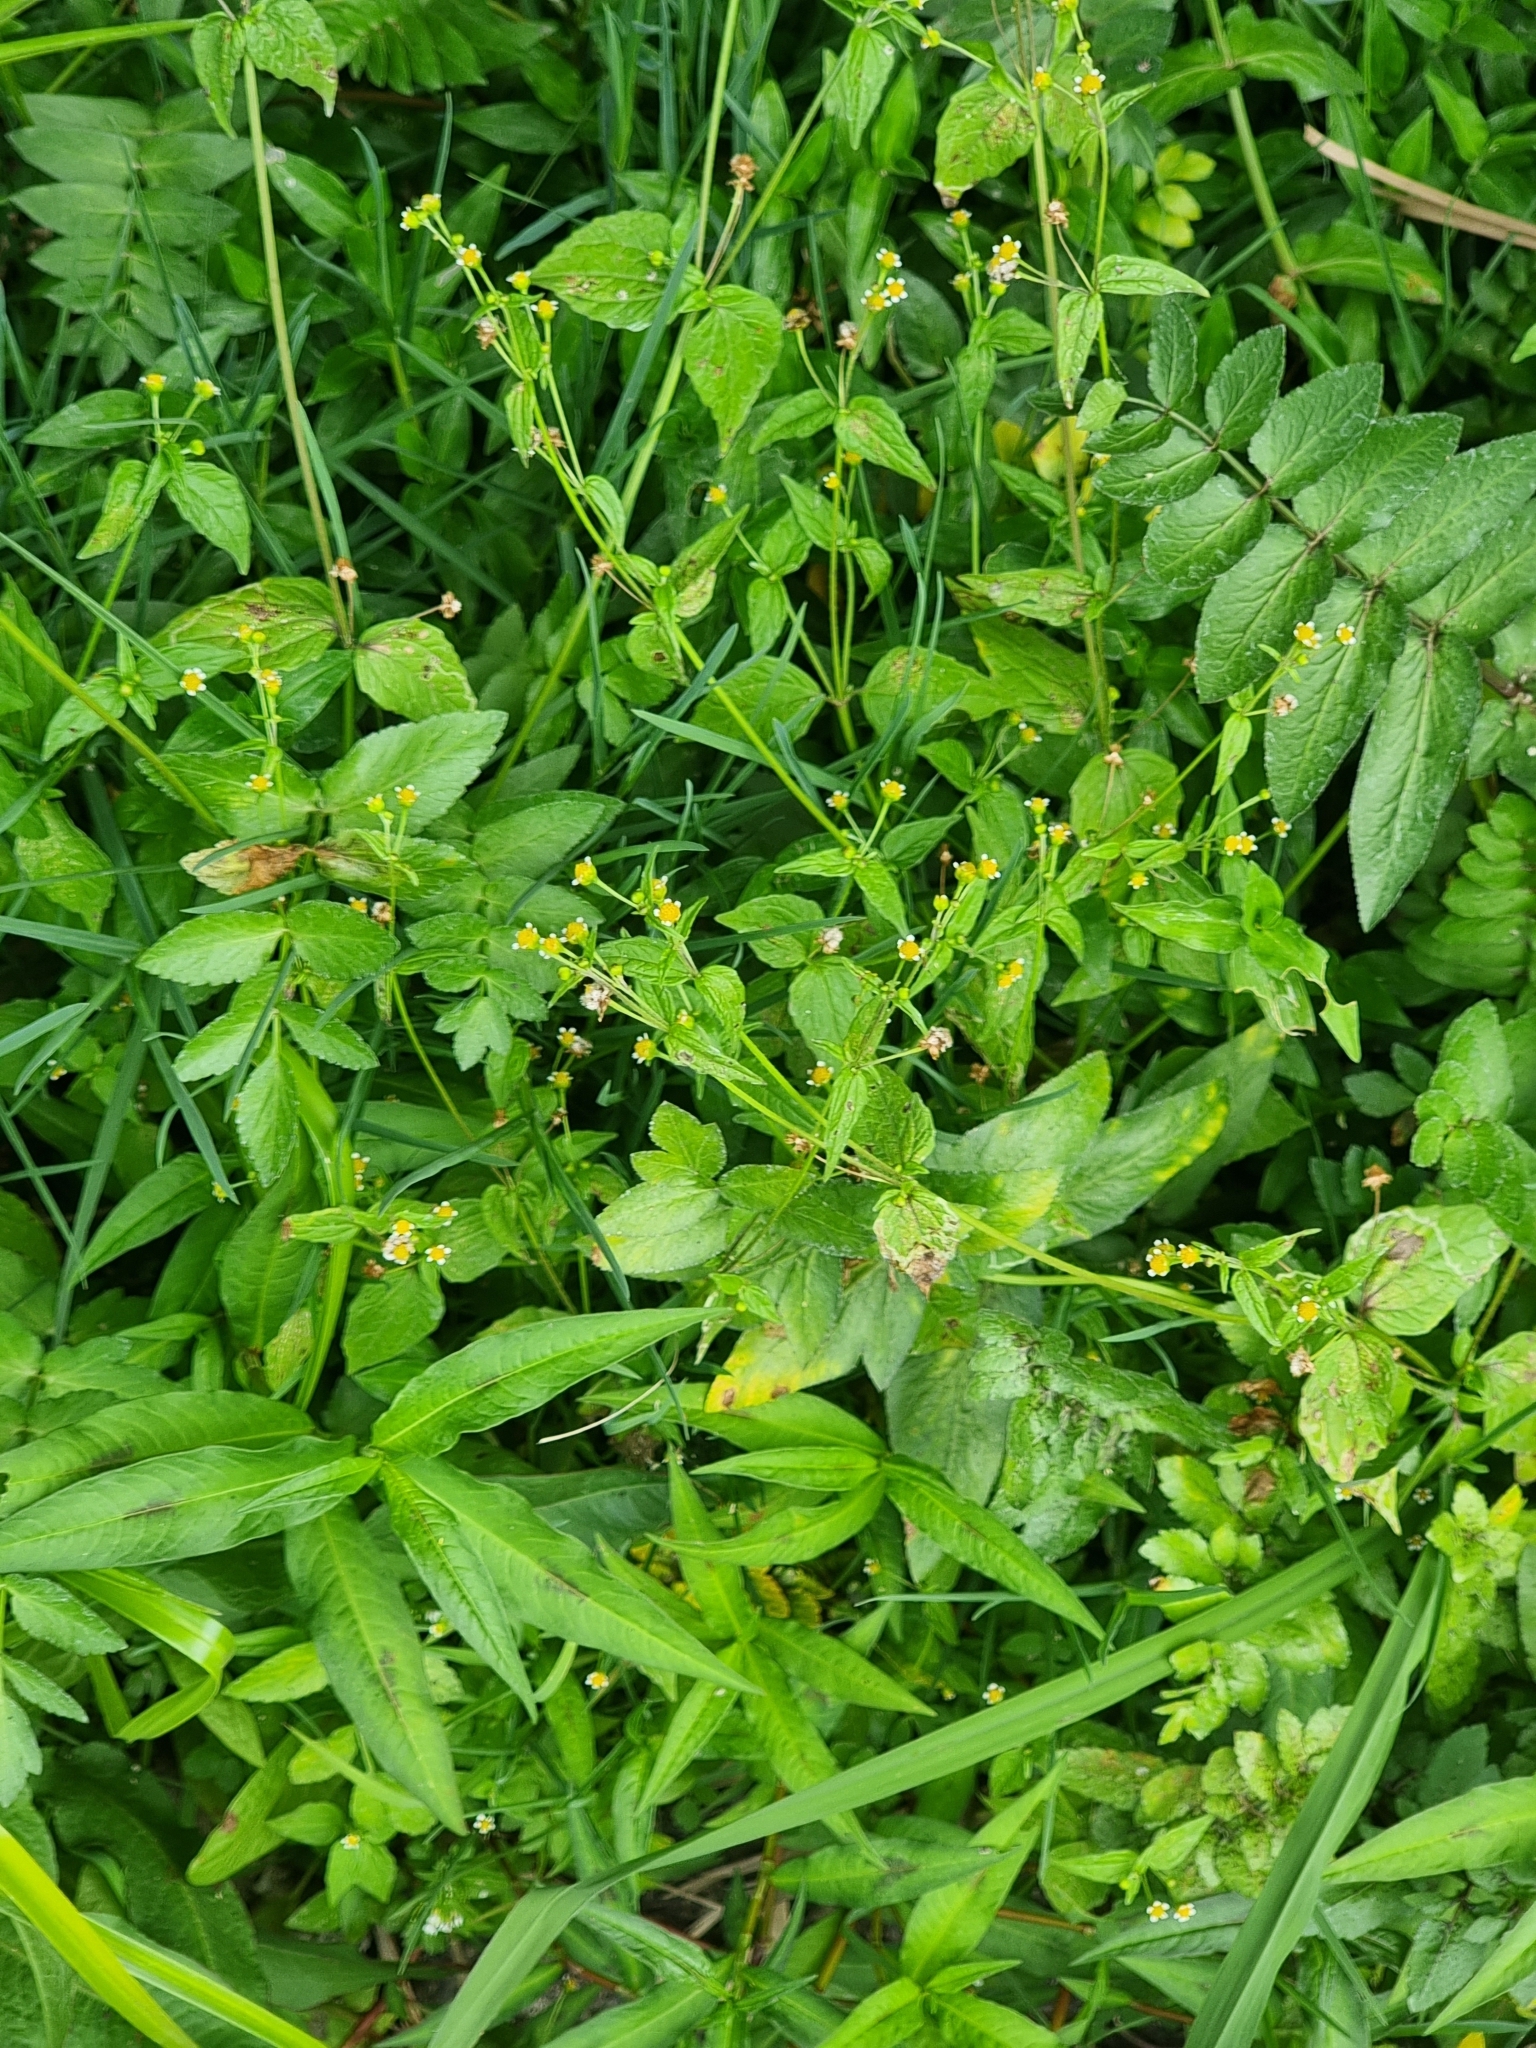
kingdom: Plantae
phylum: Tracheophyta
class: Magnoliopsida
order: Asterales
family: Asteraceae
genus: Galinsoga
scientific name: Galinsoga quadriradiata
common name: Shaggy soldier
